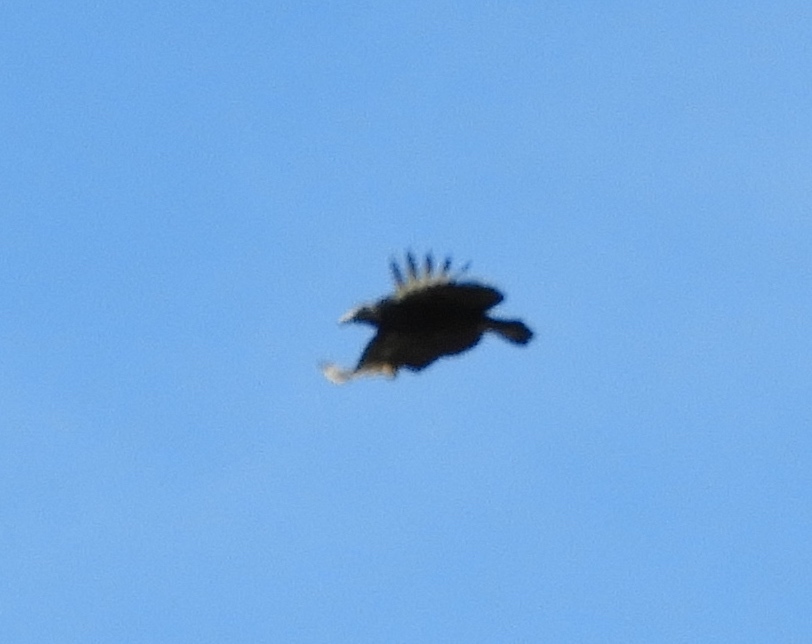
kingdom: Animalia
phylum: Chordata
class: Aves
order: Accipitriformes
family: Cathartidae
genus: Coragyps
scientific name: Coragyps atratus
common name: Black vulture
